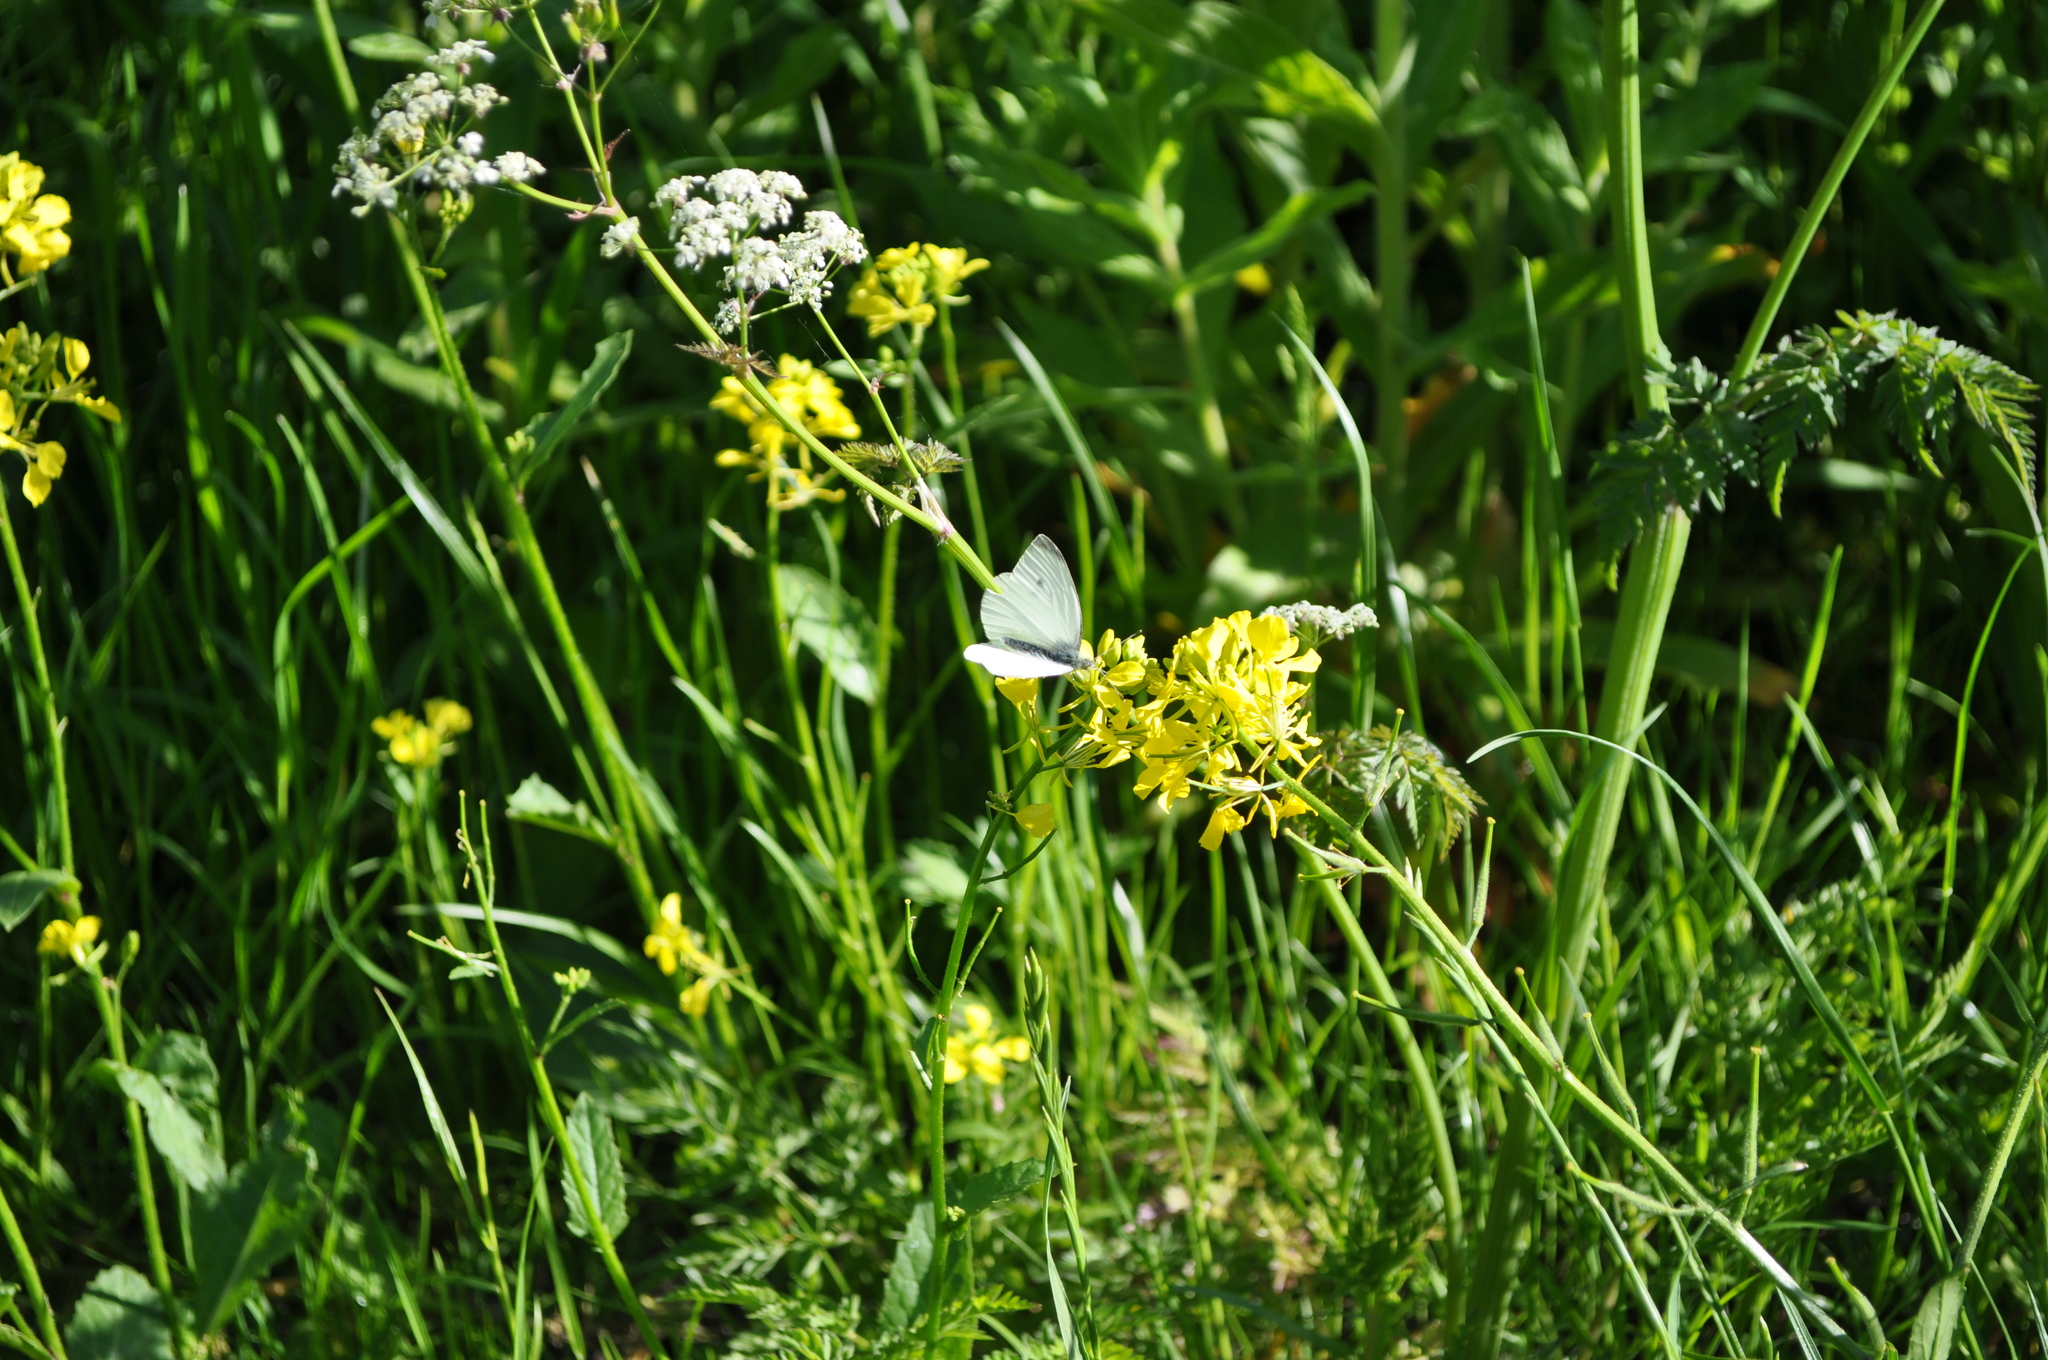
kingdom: Animalia
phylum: Arthropoda
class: Insecta
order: Lepidoptera
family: Pieridae
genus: Pieris
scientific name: Pieris rapae
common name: Small white
